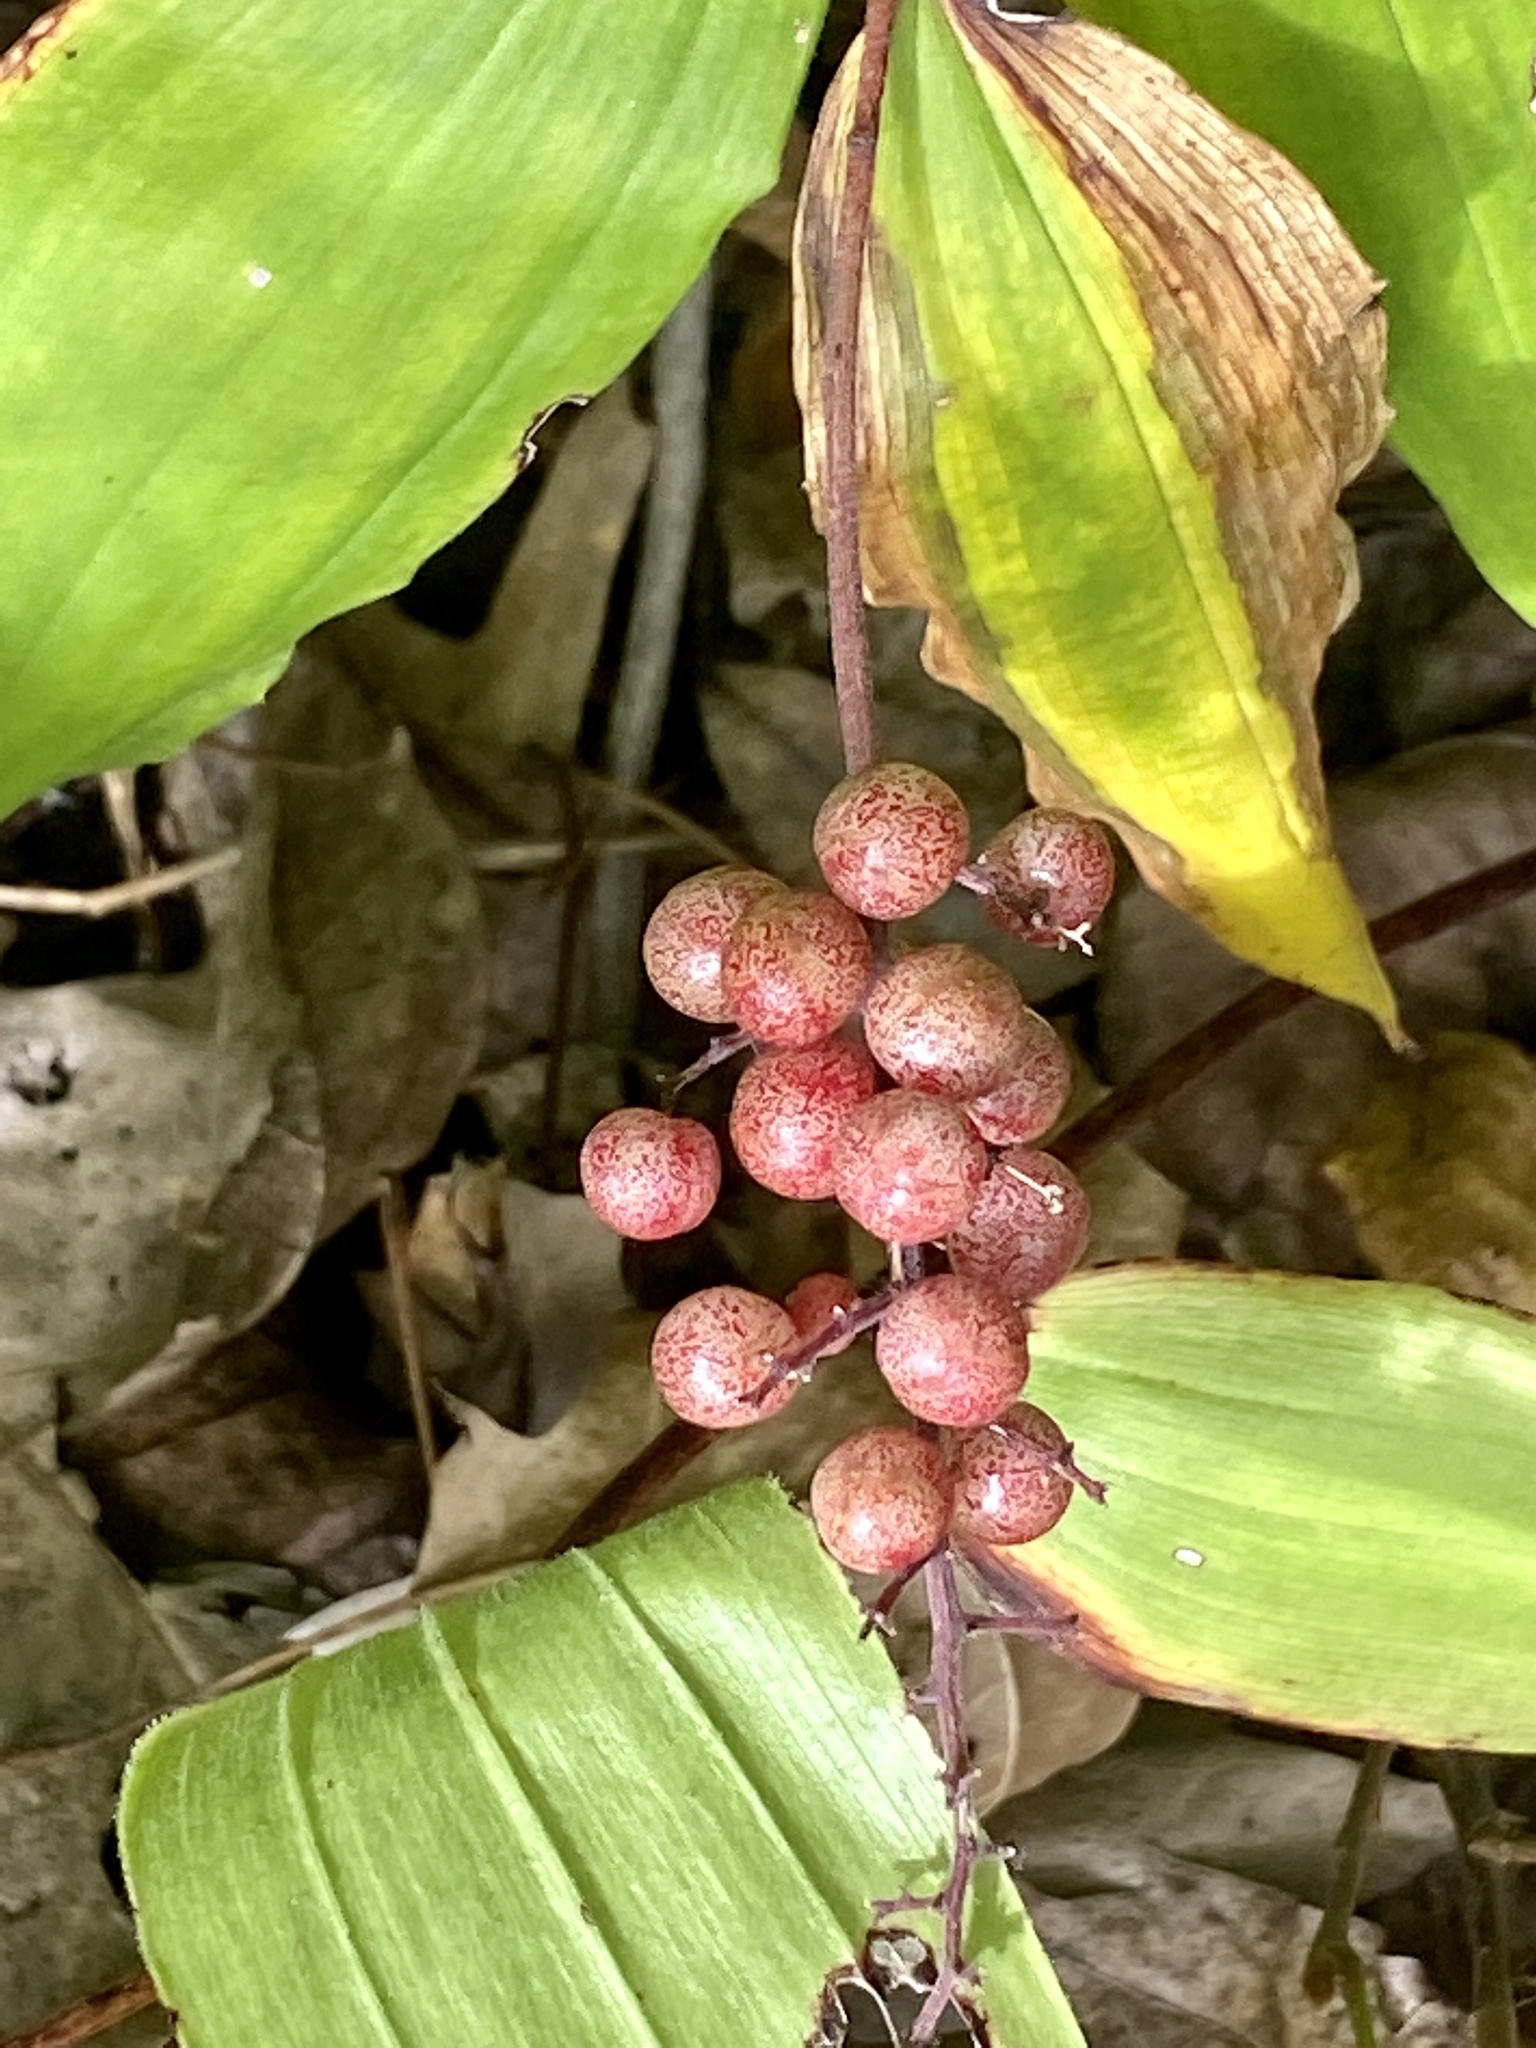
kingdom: Plantae
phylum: Tracheophyta
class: Liliopsida
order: Asparagales
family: Asparagaceae
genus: Maianthemum
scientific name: Maianthemum racemosum
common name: False spikenard
